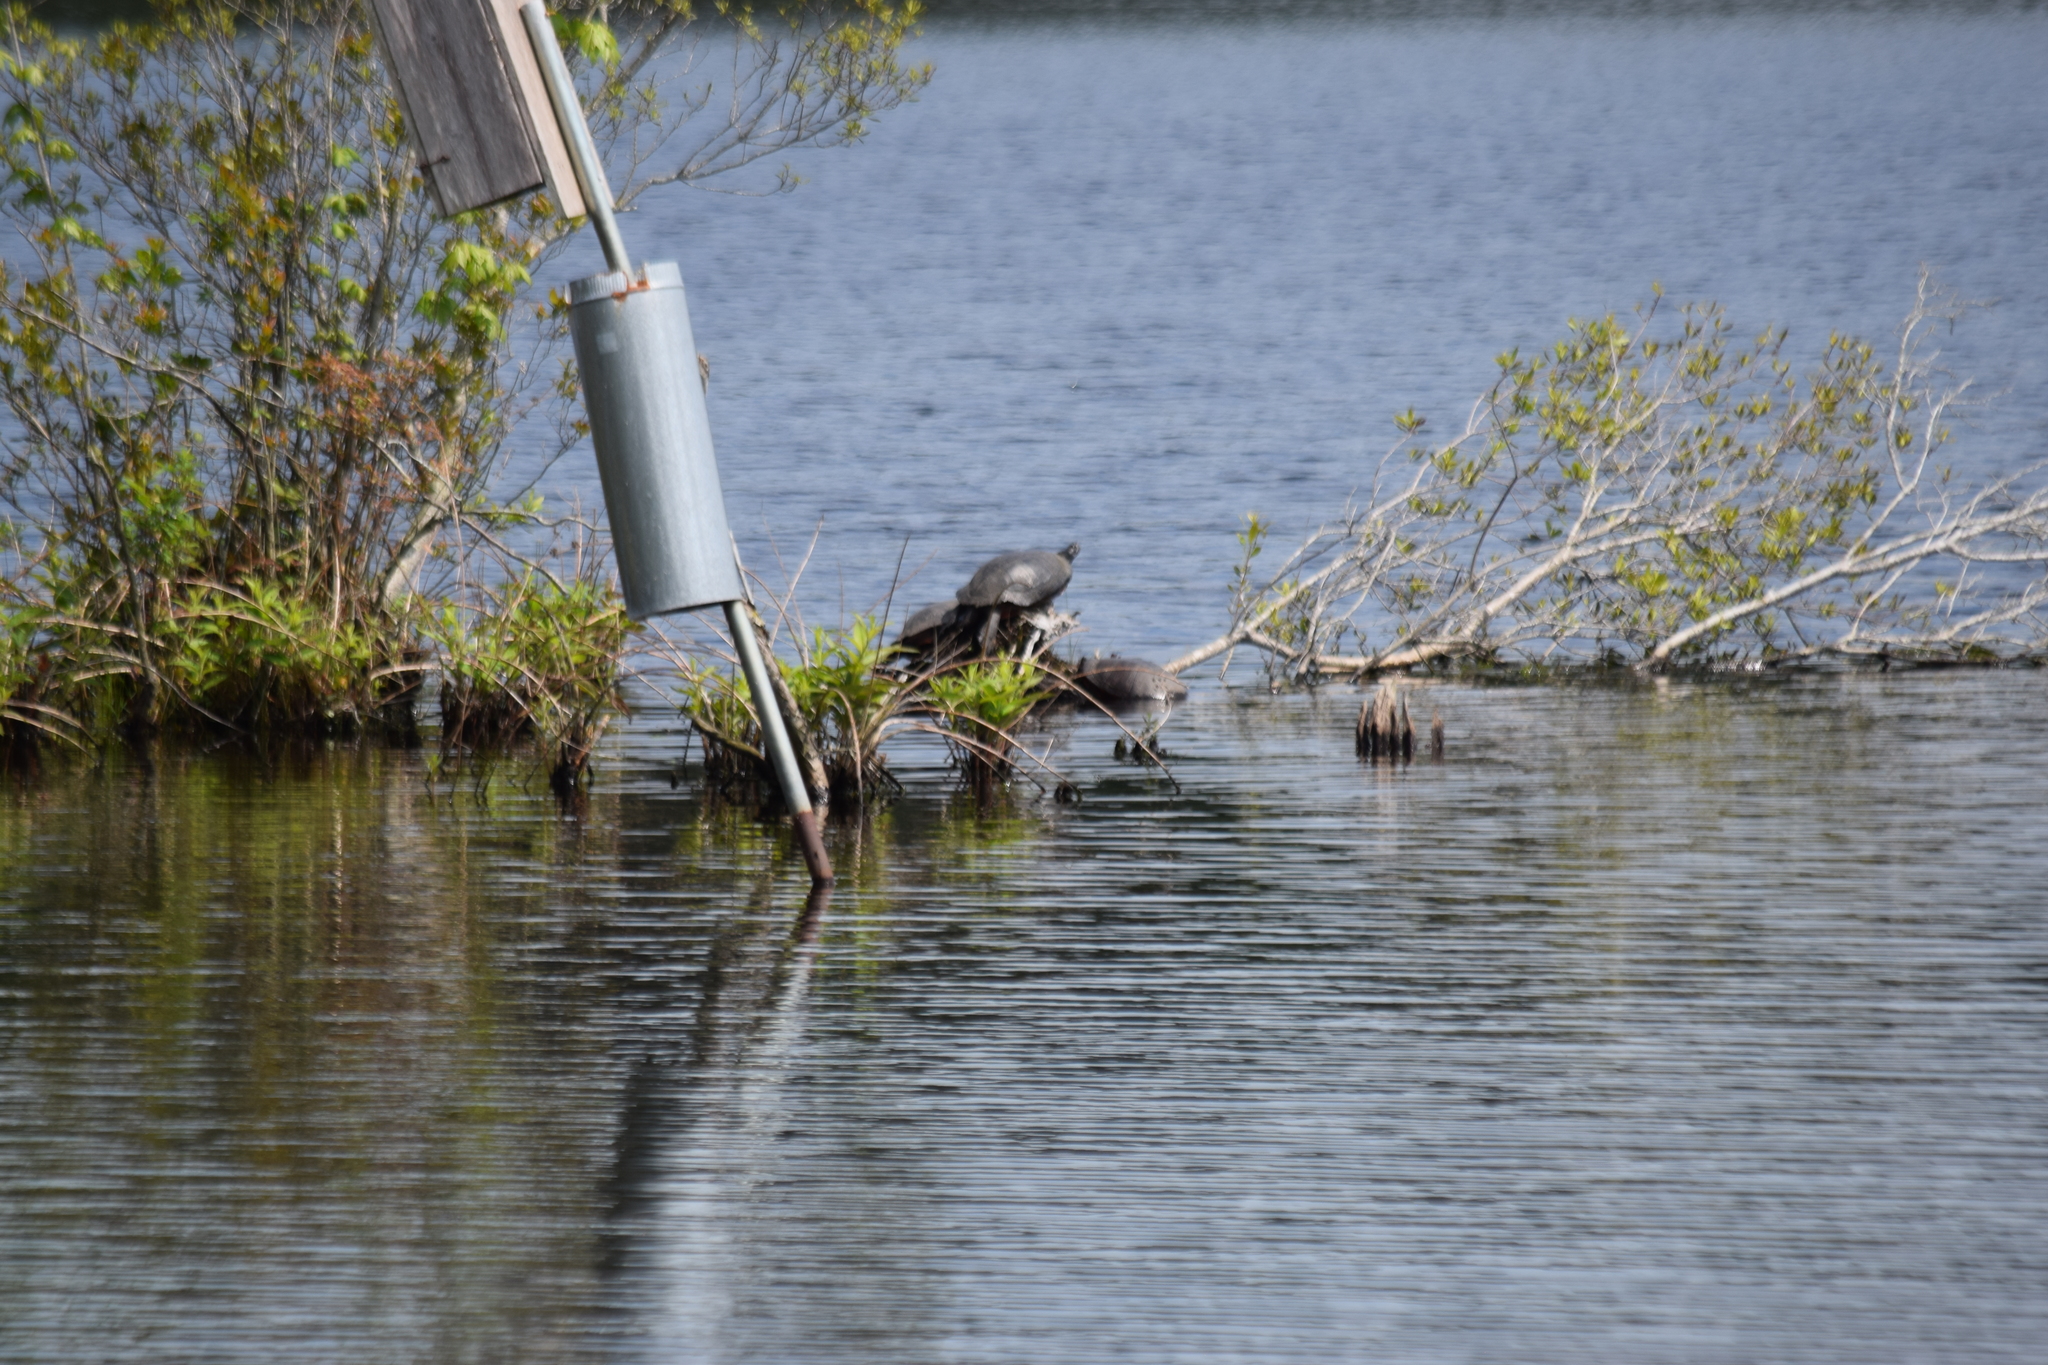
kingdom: Animalia
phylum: Chordata
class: Testudines
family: Emydidae
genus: Pseudemys
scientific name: Pseudemys rubriventris
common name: American red-bellied turtle
